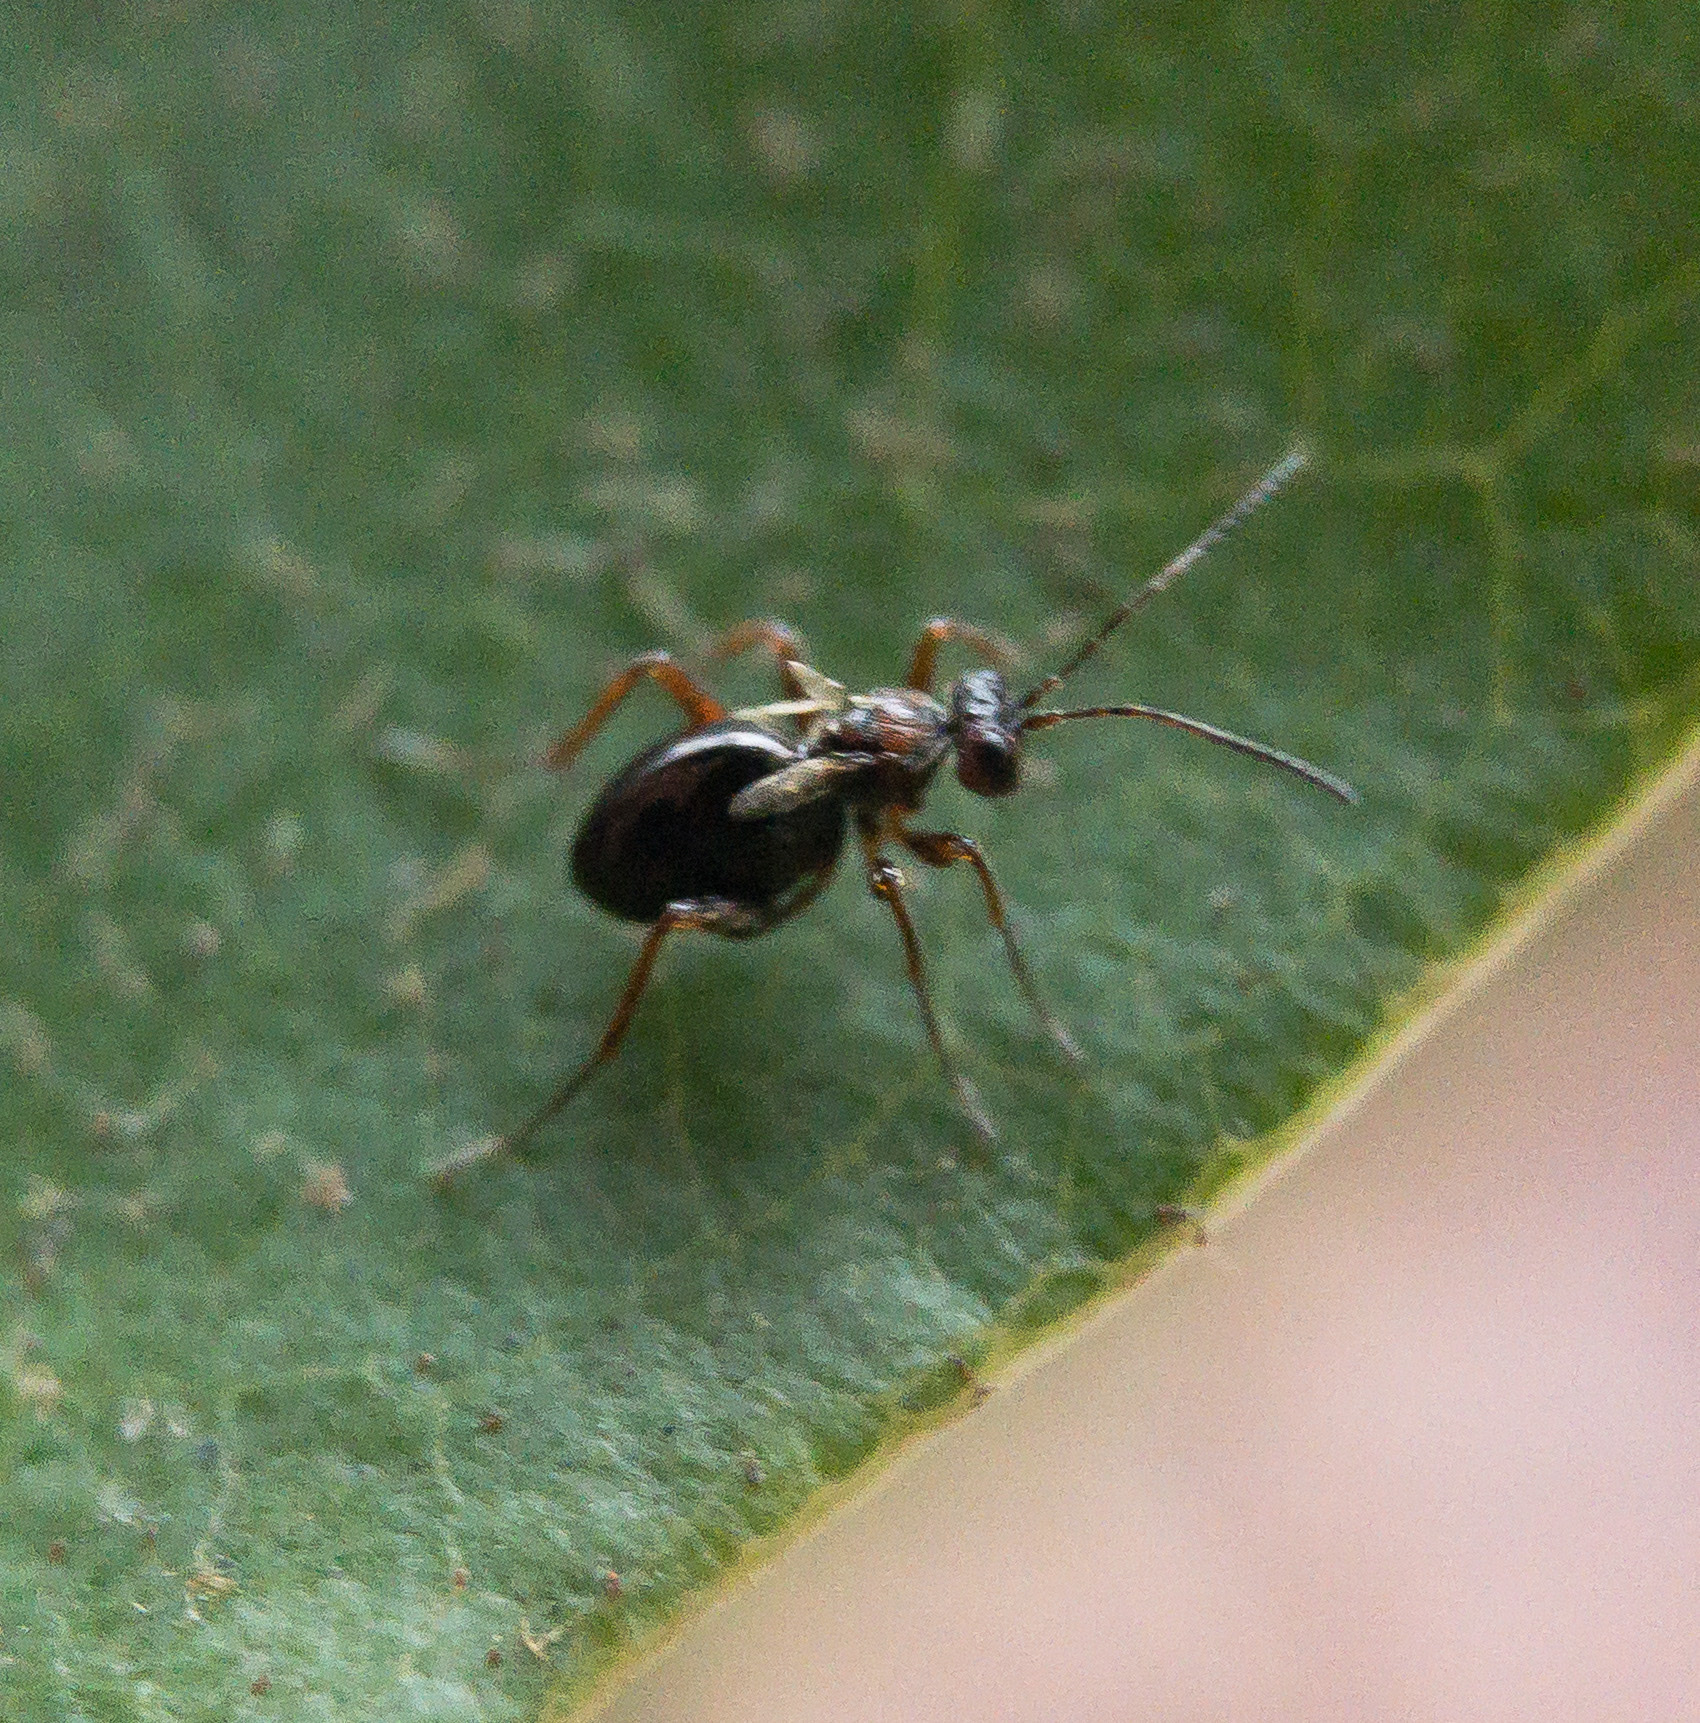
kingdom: Animalia
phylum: Arthropoda
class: Insecta
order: Hymenoptera
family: Cynipidae
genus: Philonix
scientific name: Philonix fulvicollis
